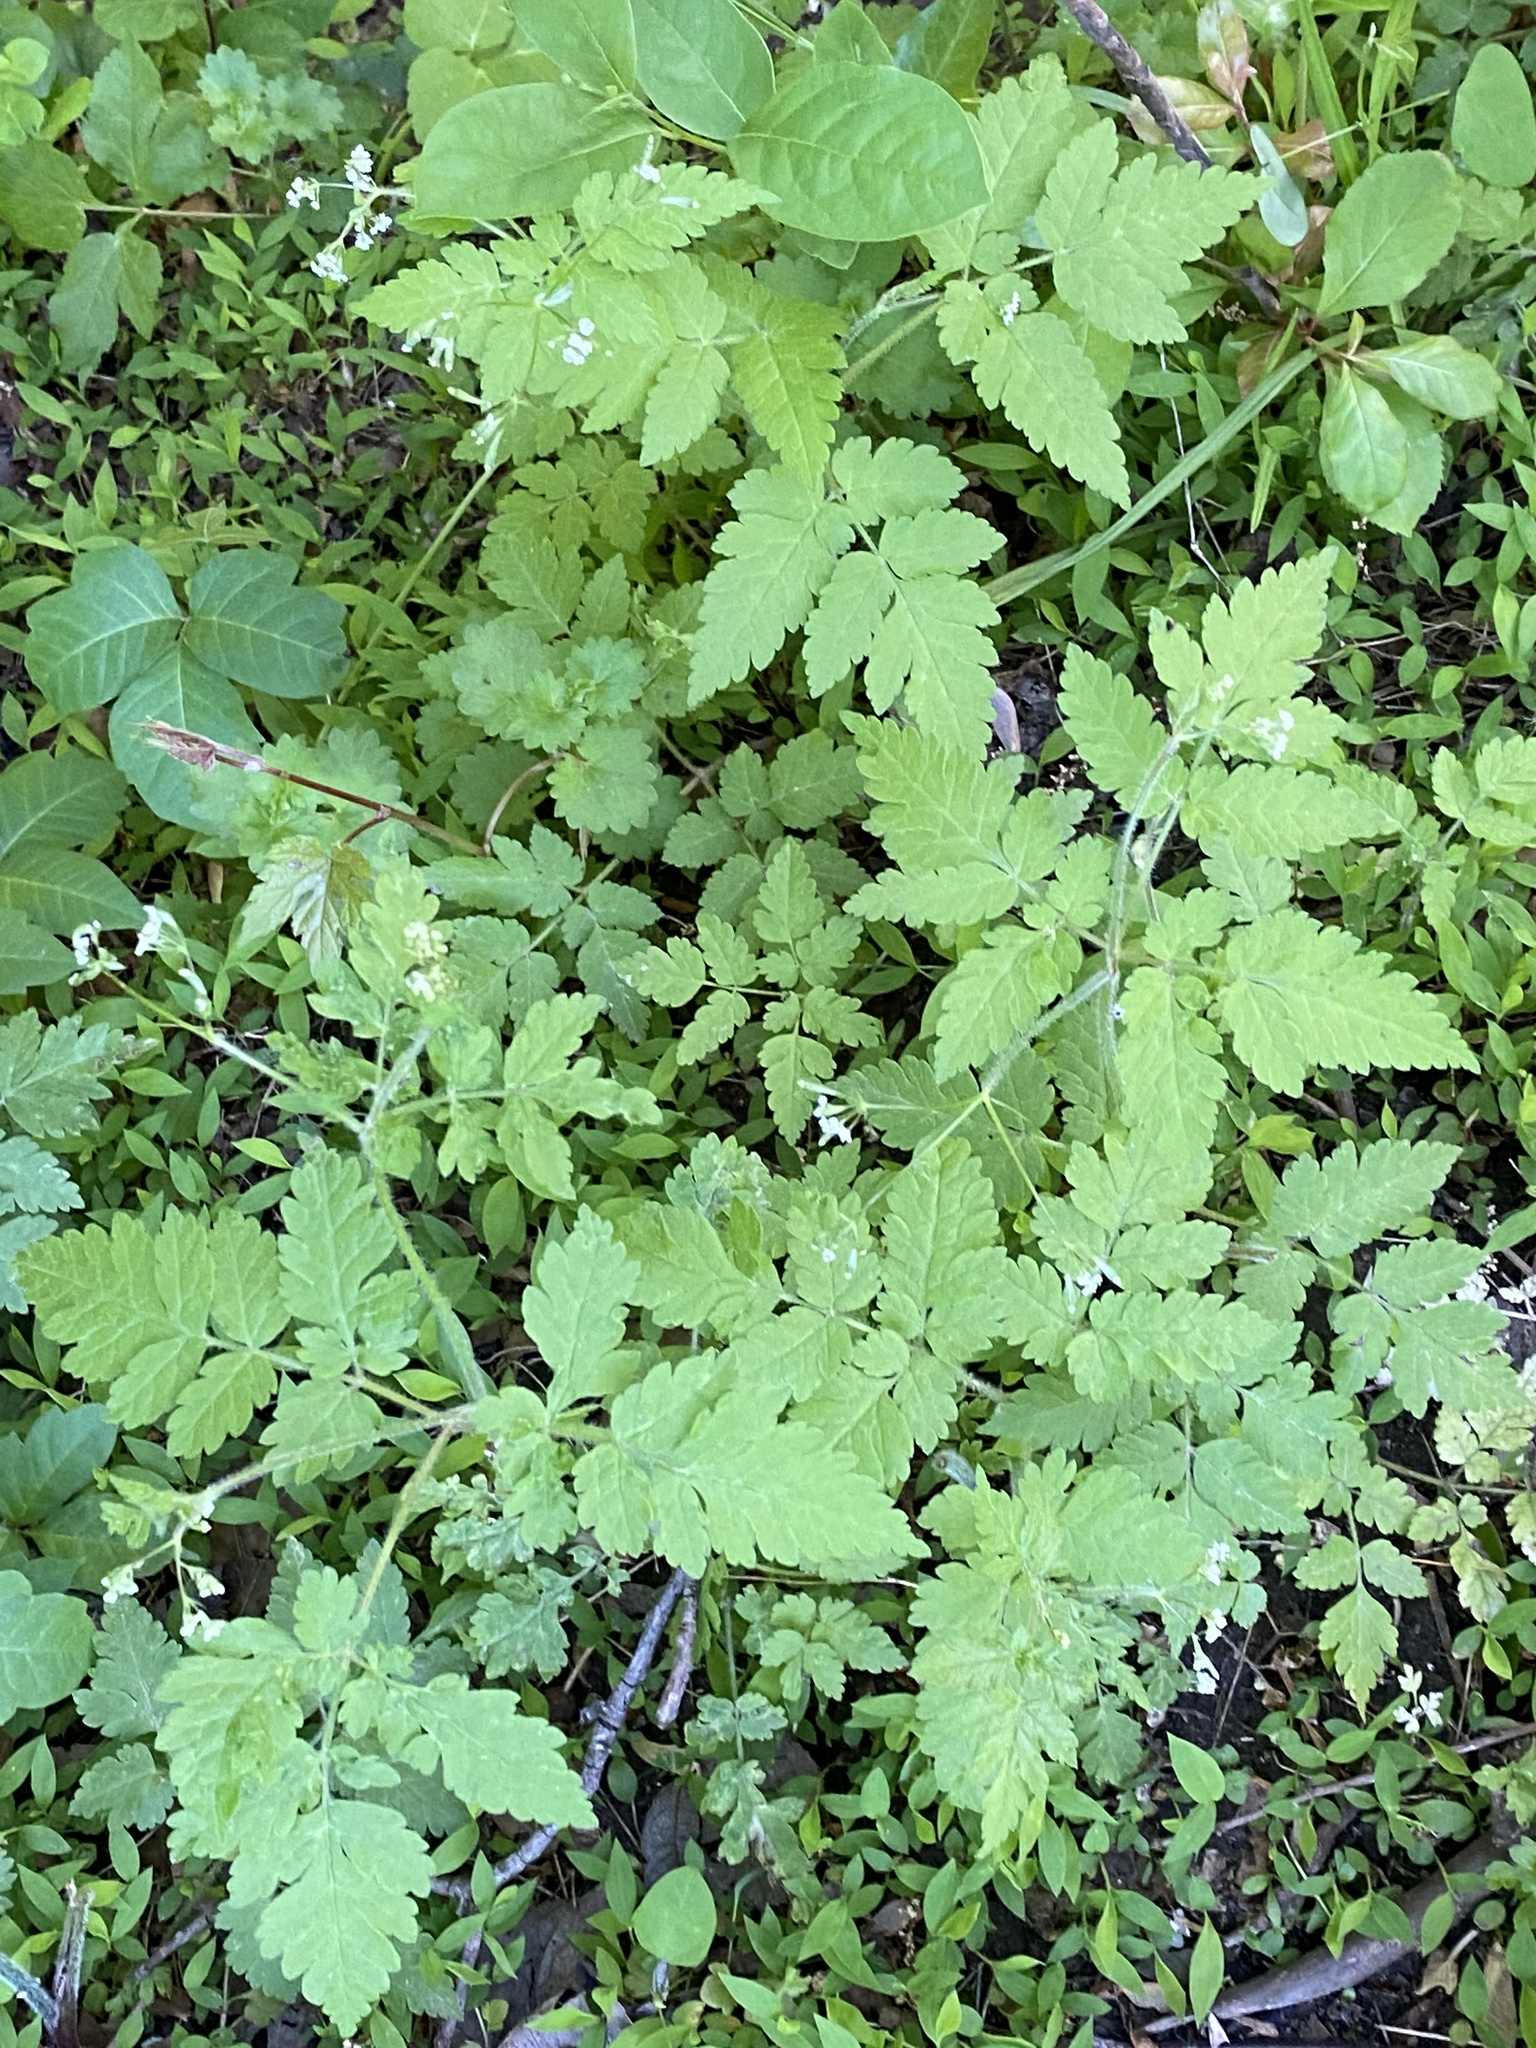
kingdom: Plantae
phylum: Tracheophyta
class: Magnoliopsida
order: Apiales
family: Apiaceae
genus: Osmorhiza
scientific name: Osmorhiza claytonii
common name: Hairy sweet cicely
